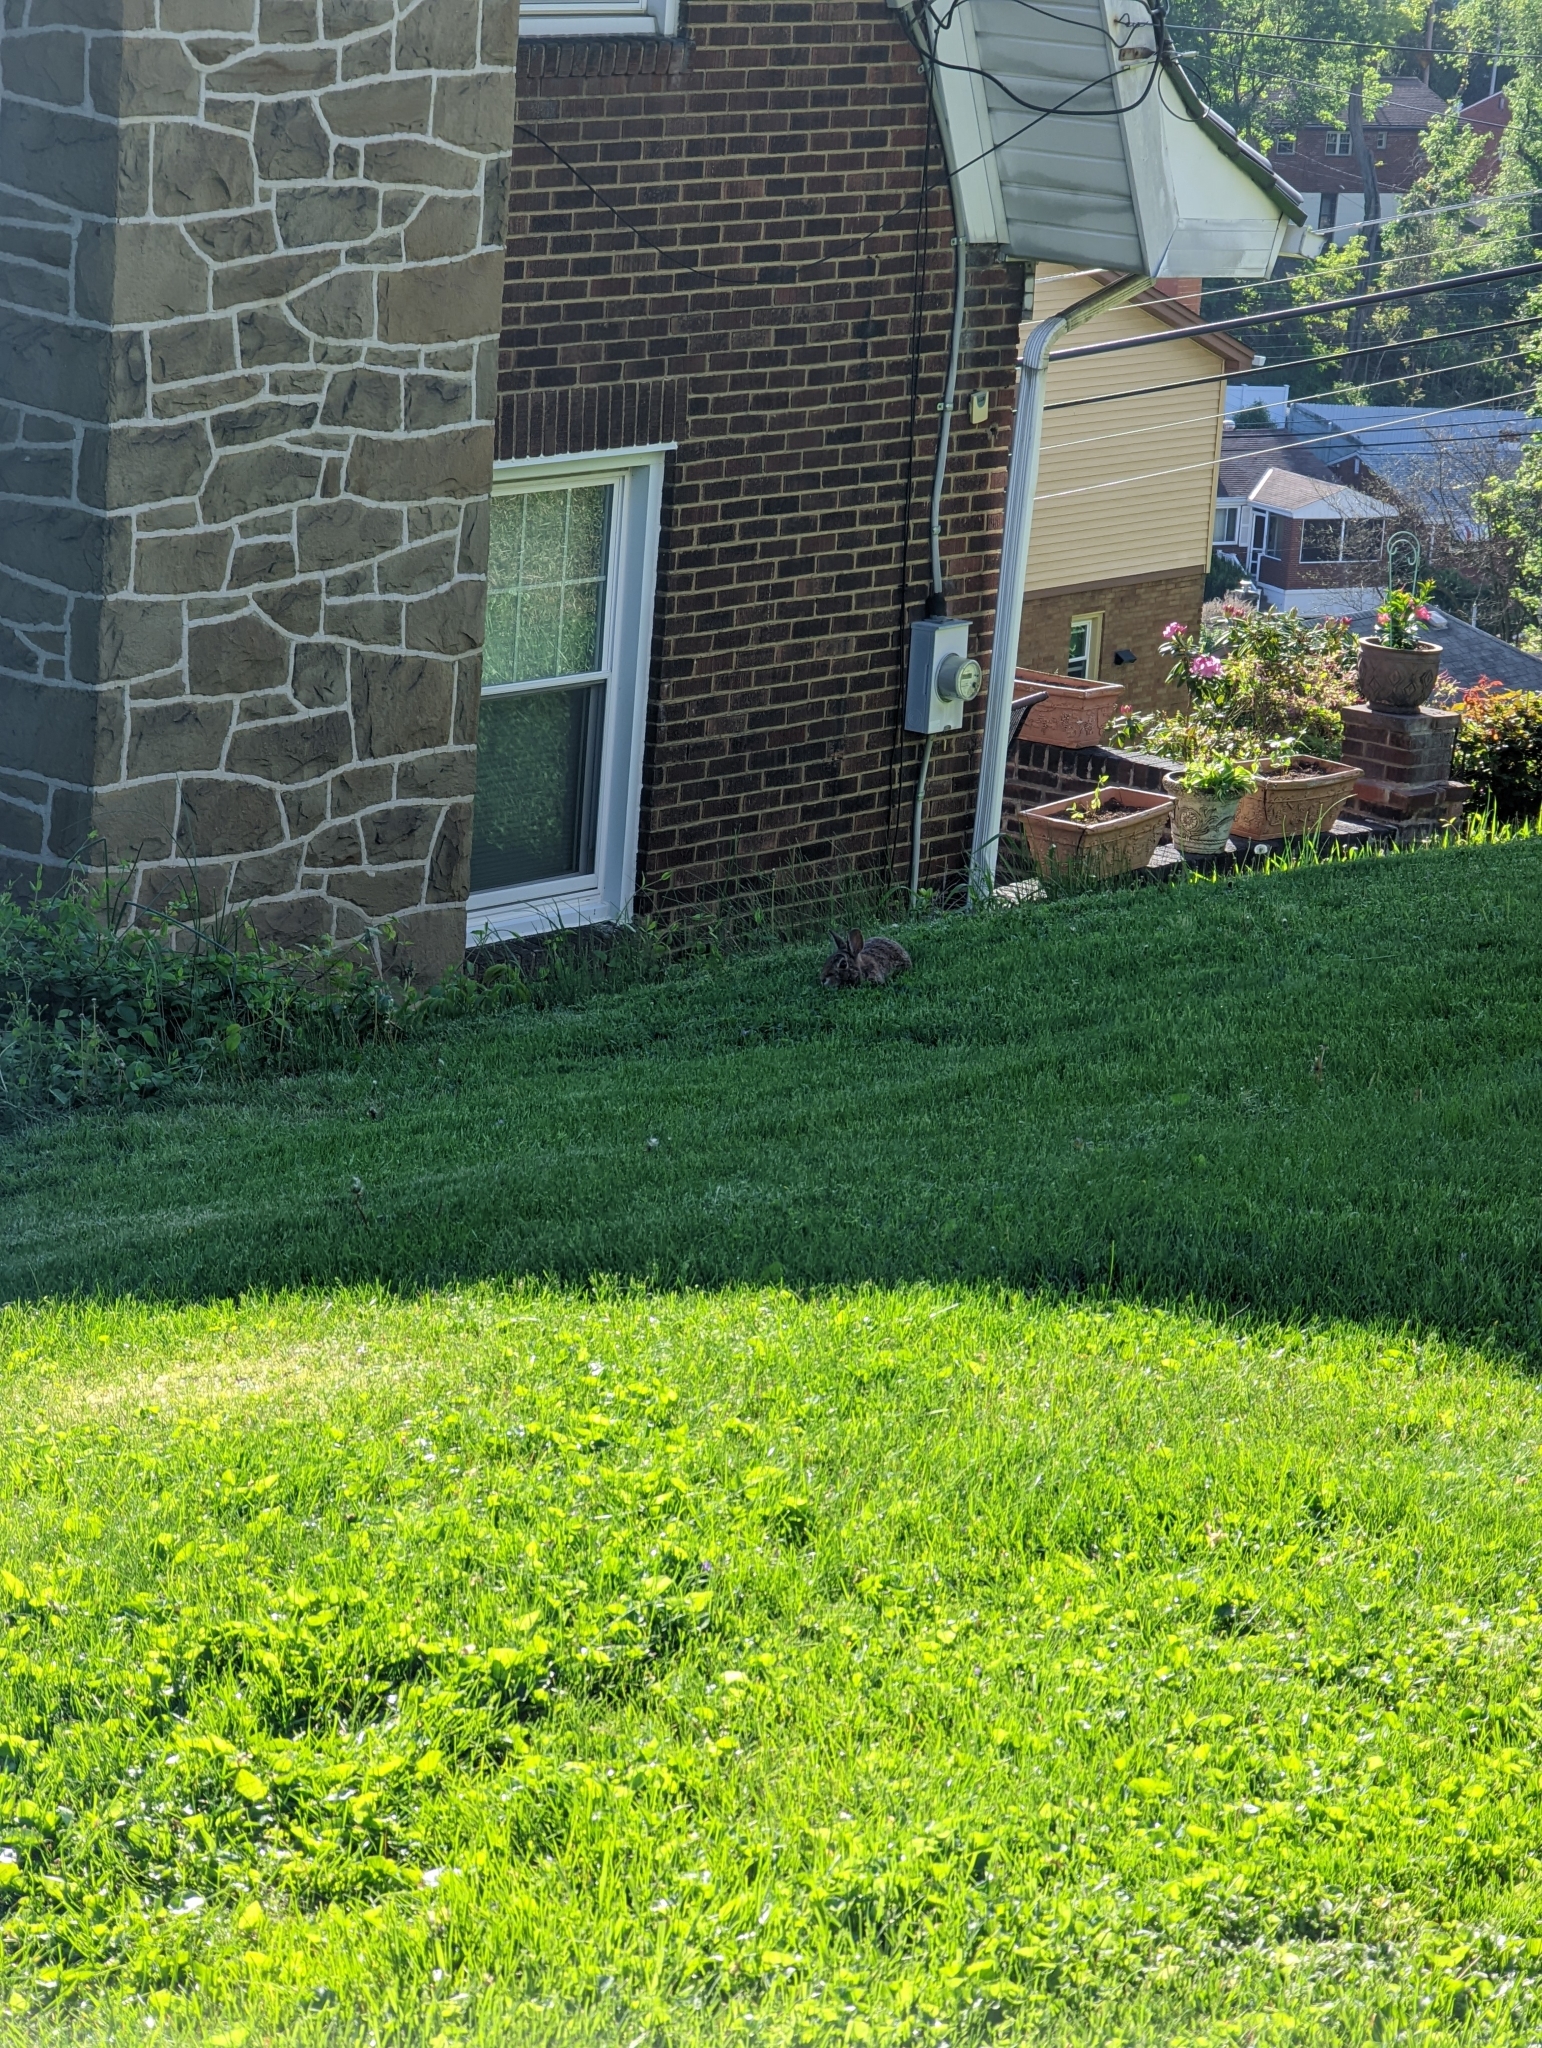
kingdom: Animalia
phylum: Chordata
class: Mammalia
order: Lagomorpha
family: Leporidae
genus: Sylvilagus
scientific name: Sylvilagus floridanus
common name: Eastern cottontail
